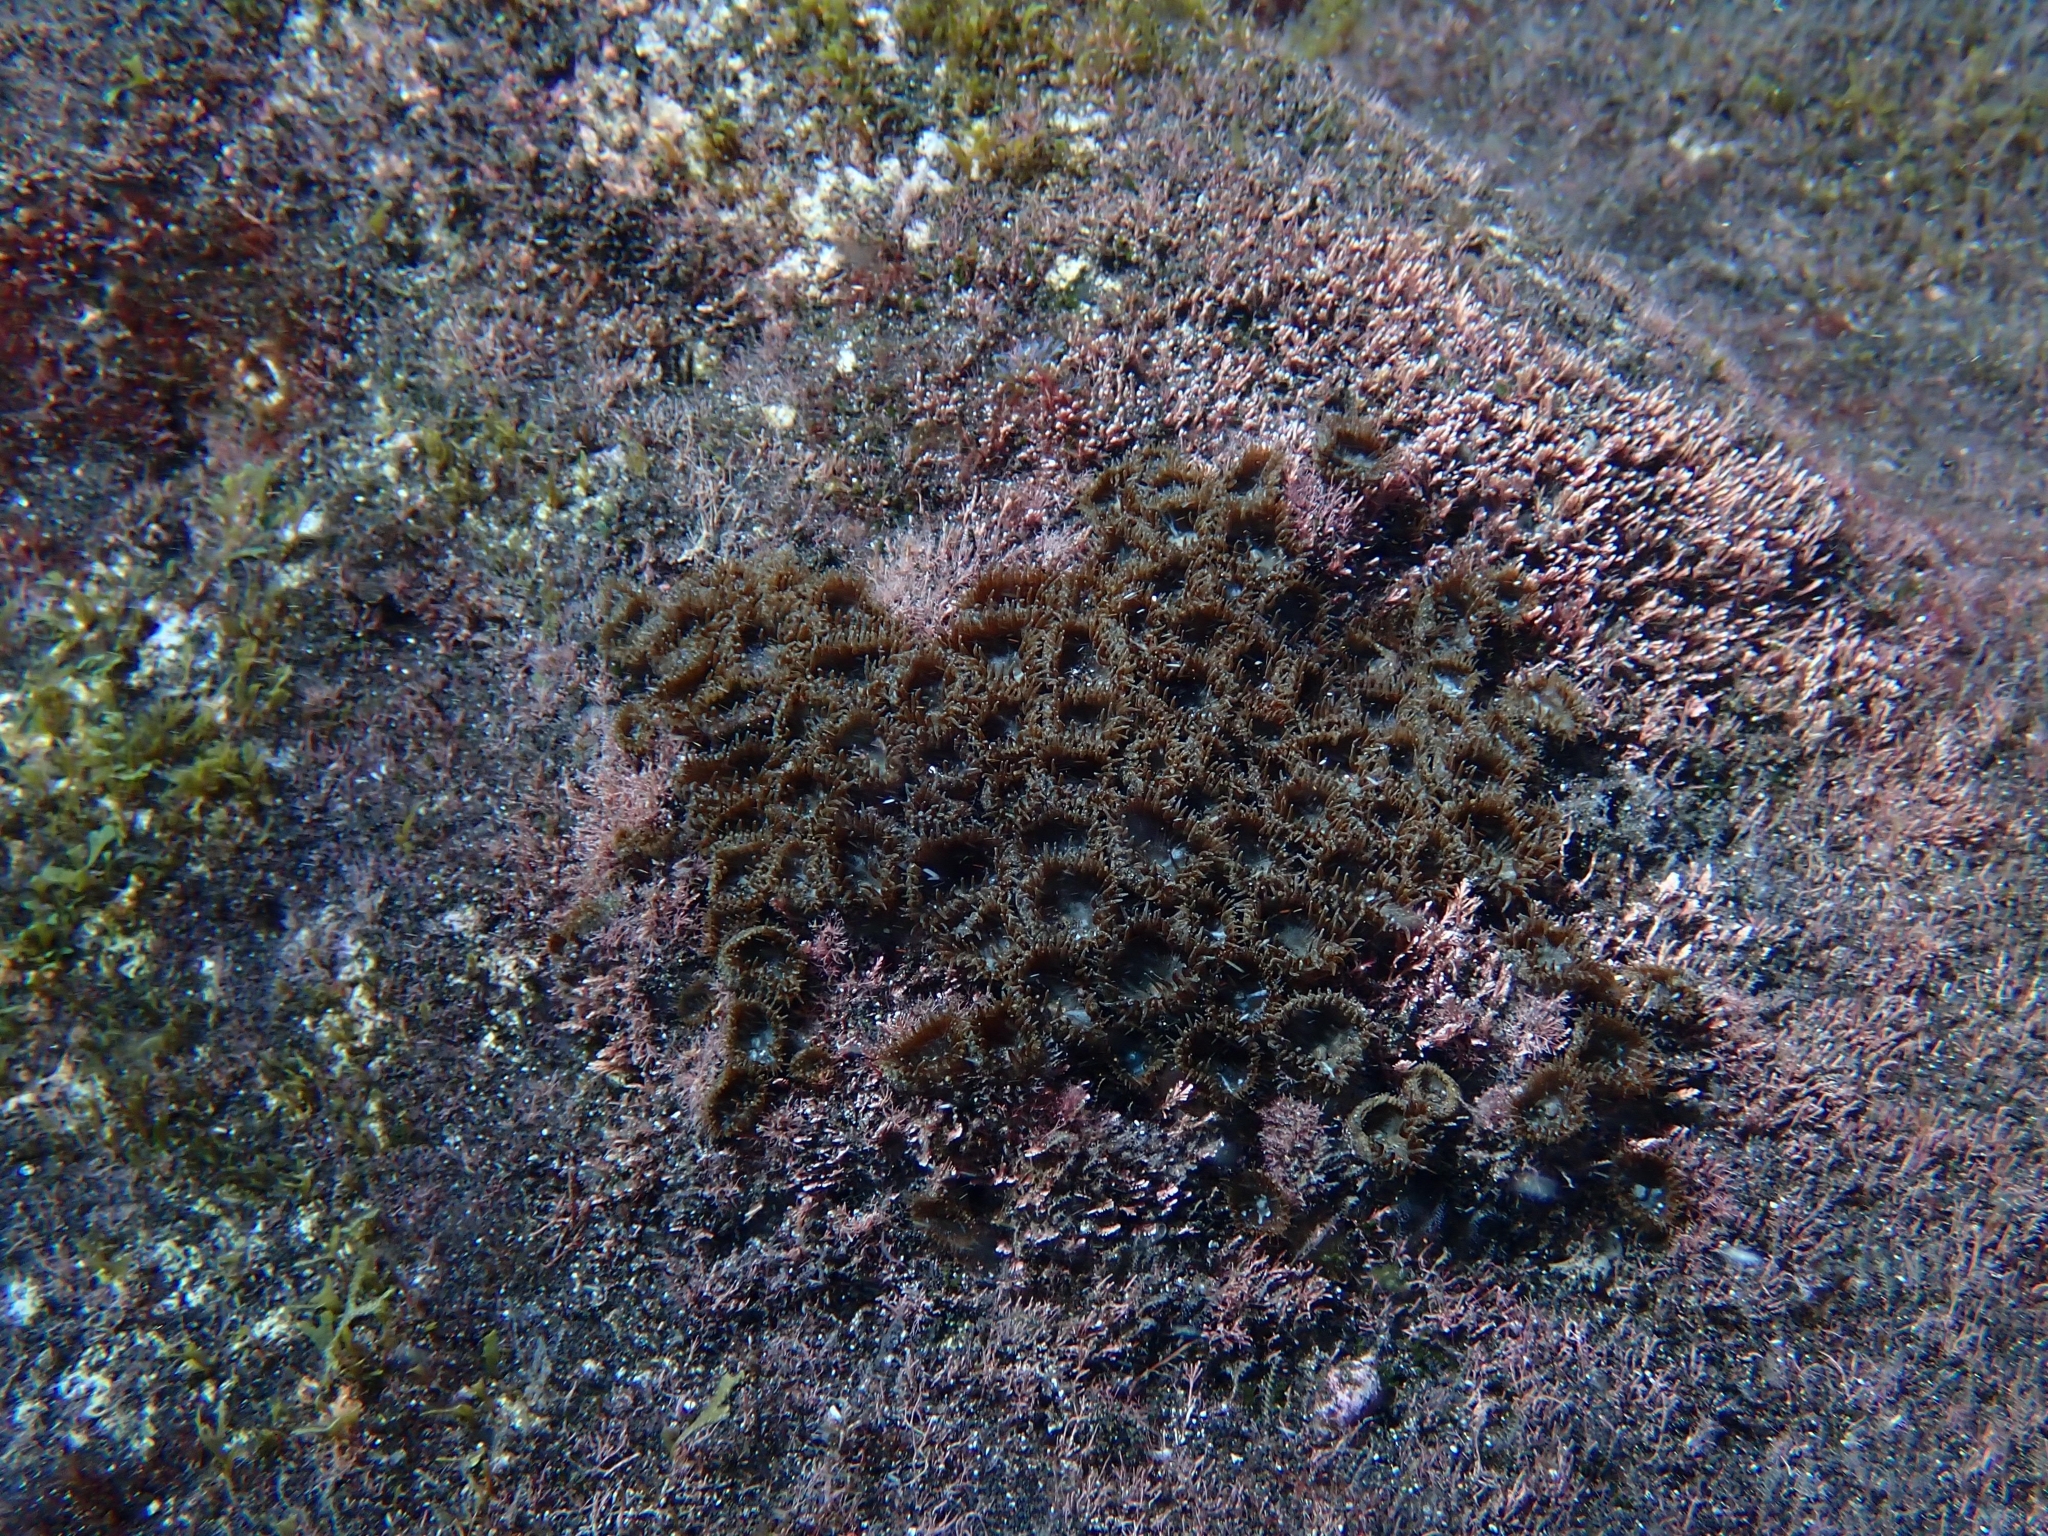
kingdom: Animalia
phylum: Cnidaria
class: Anthozoa
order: Zoantharia
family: Sphenopidae
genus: Palythoa
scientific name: Palythoa grandiflora
